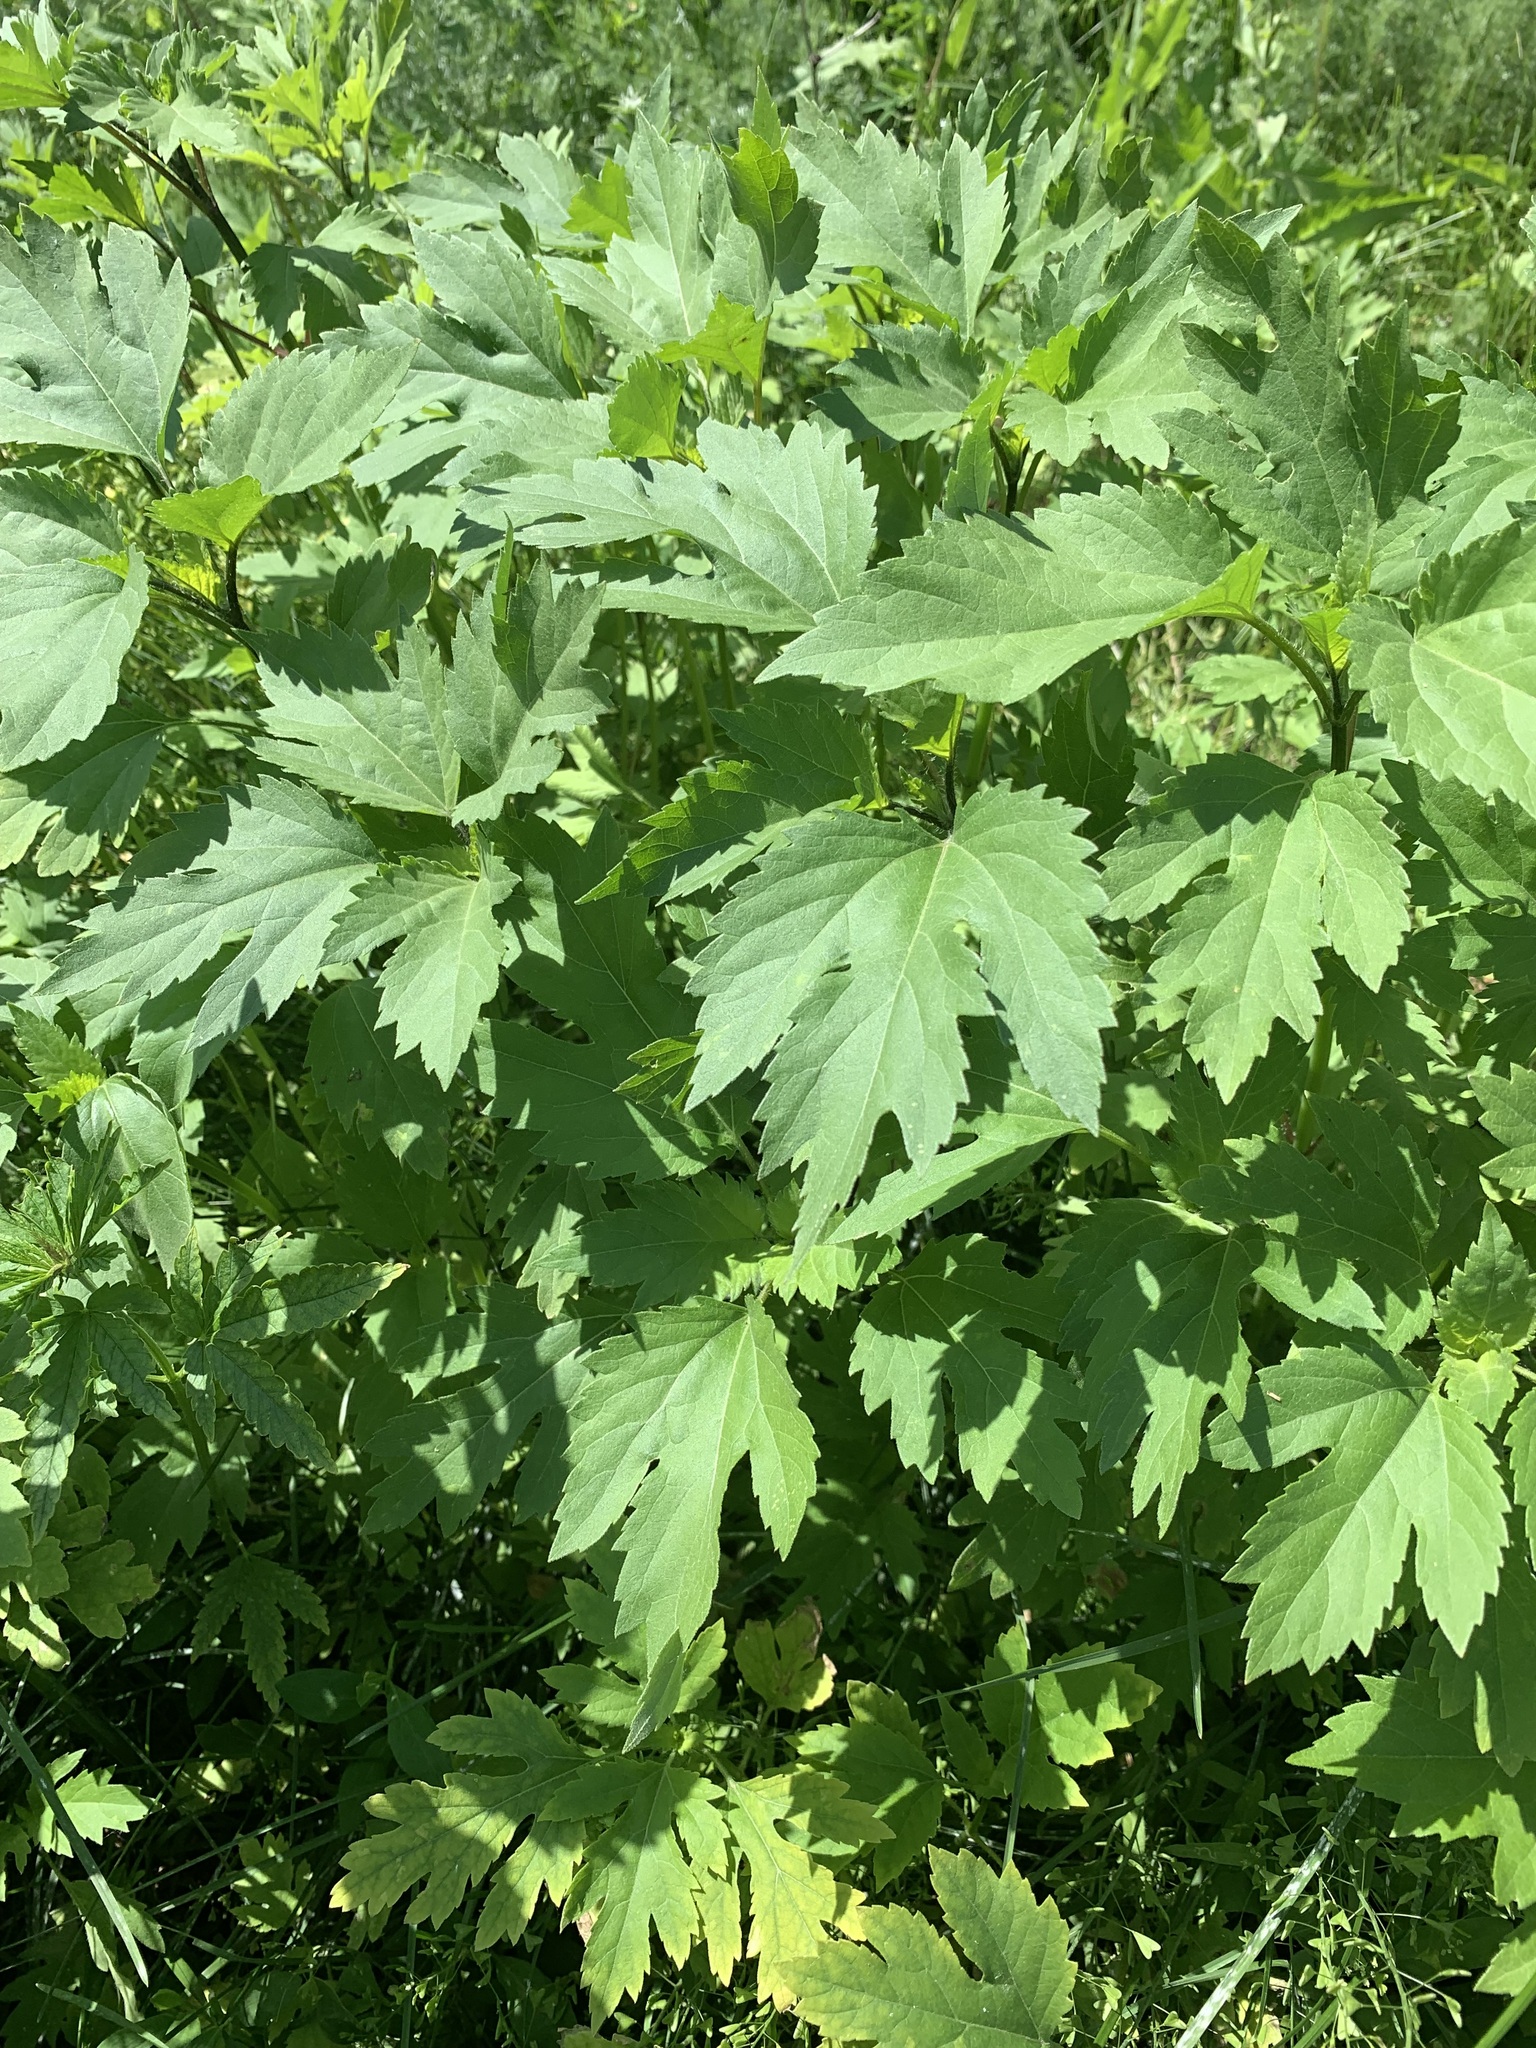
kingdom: Plantae
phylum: Tracheophyta
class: Magnoliopsida
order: Asterales
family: Asteraceae
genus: Cyclachaena
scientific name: Cyclachaena xanthiifolia
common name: Giant sumpweed
